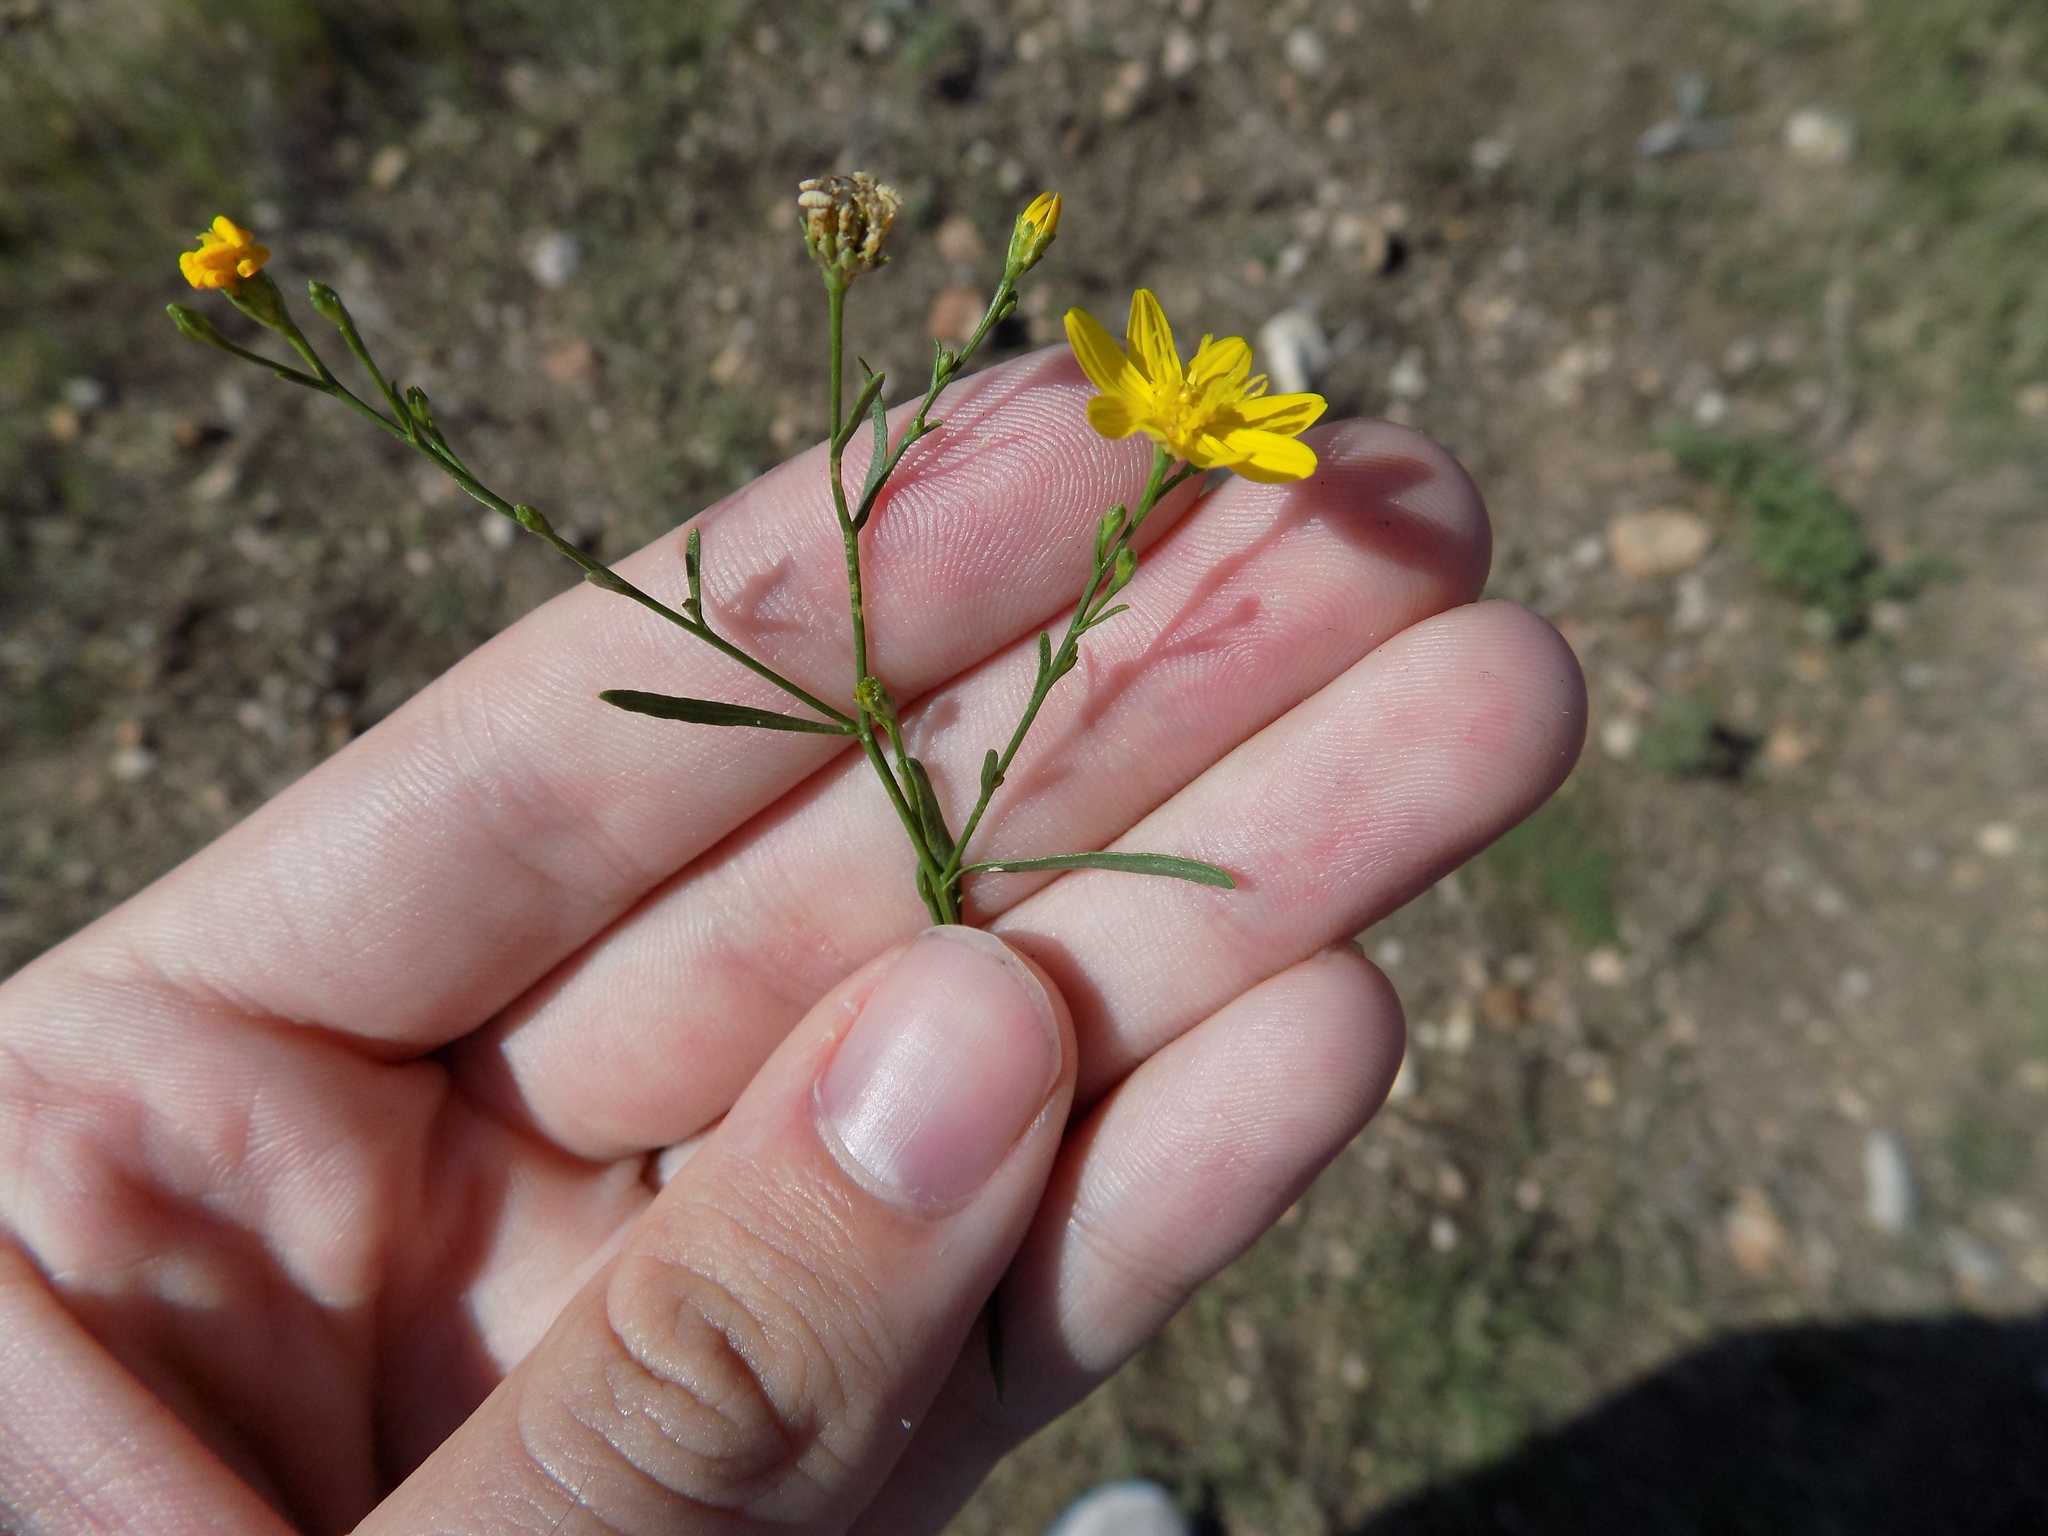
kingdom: Plantae
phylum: Tracheophyta
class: Magnoliopsida
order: Asterales
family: Asteraceae
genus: Gutierrezia
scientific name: Gutierrezia texana
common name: Texas snakeweed
